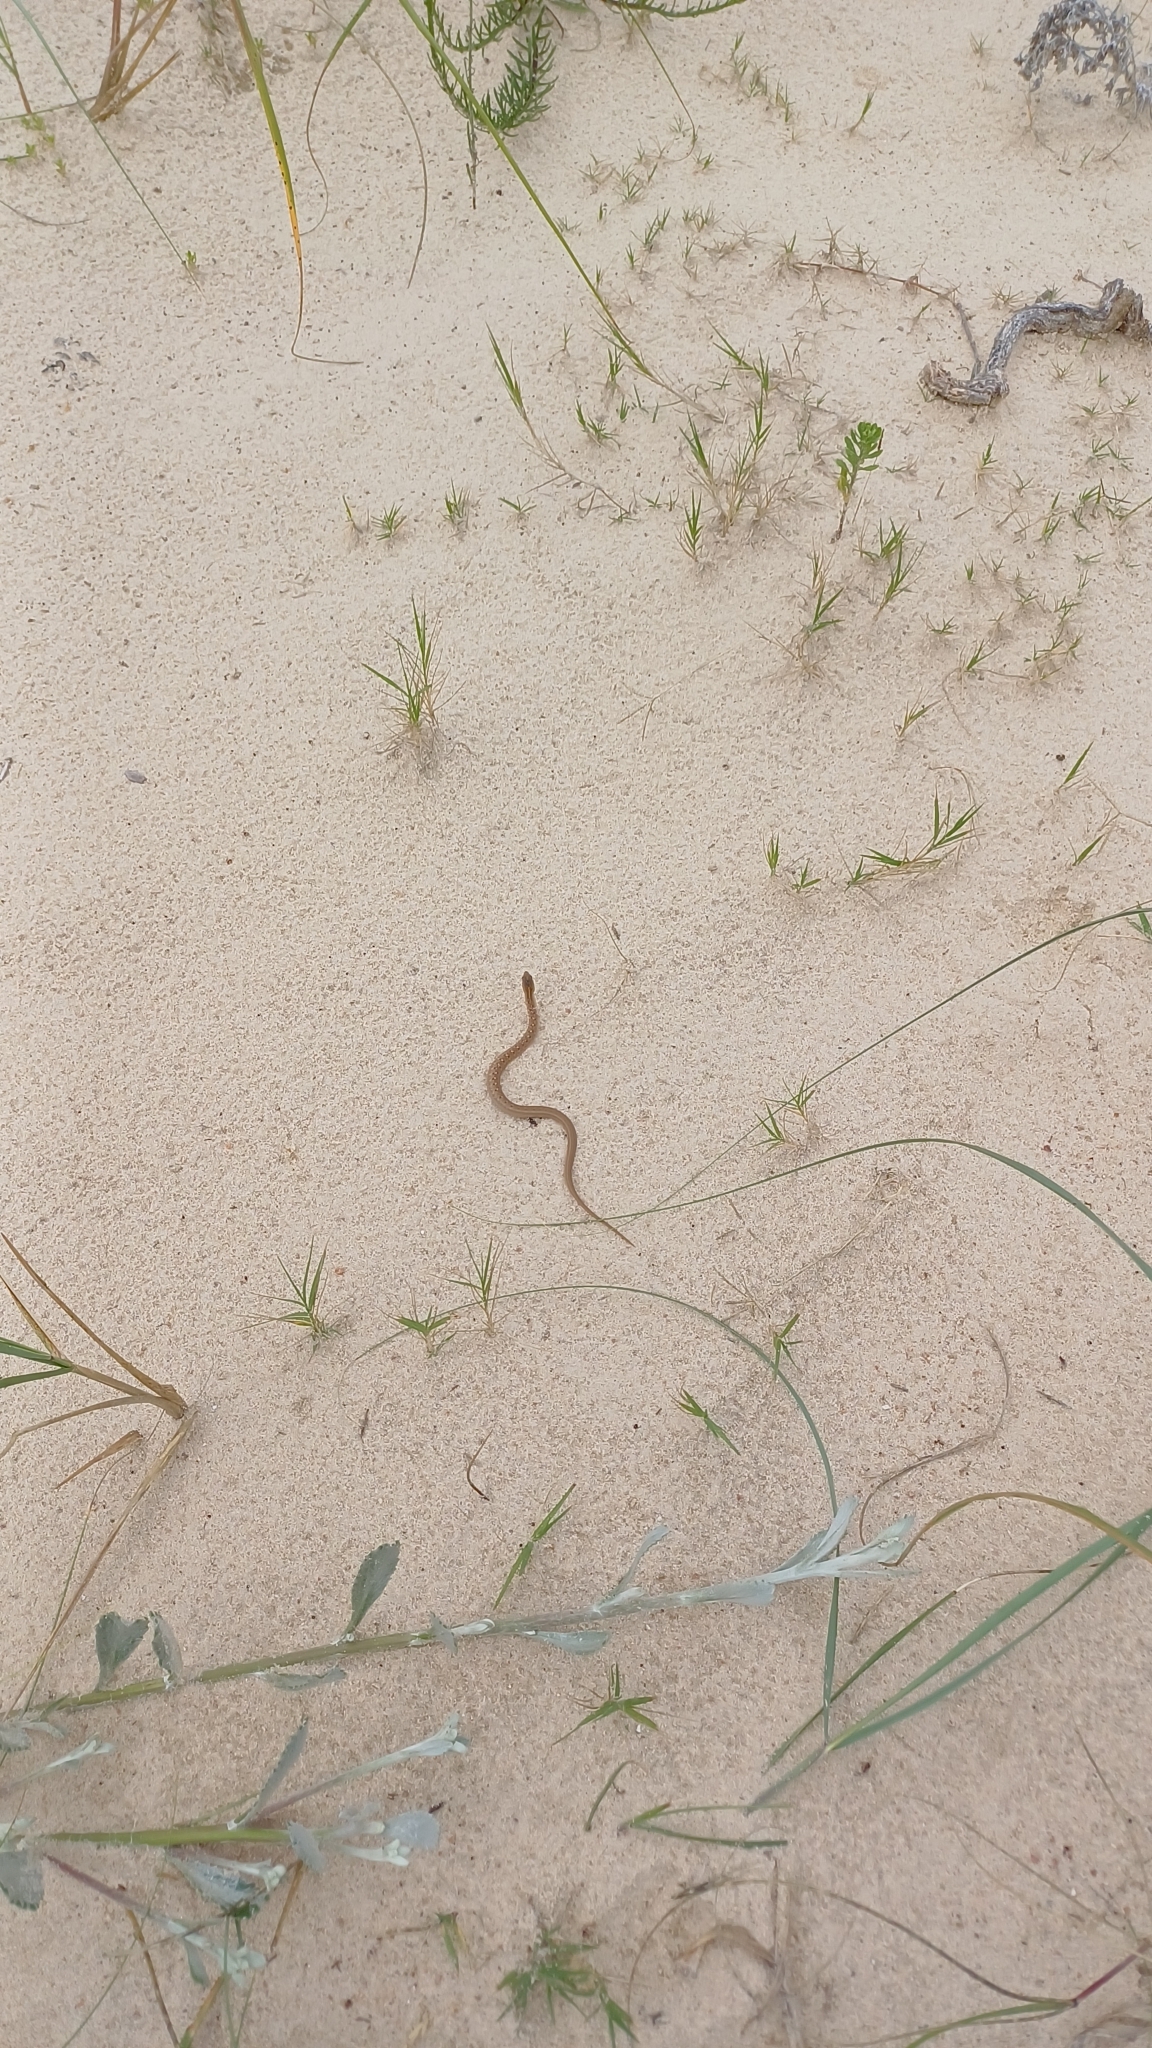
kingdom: Animalia
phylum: Chordata
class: Squamata
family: Colubridae
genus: Dryophylax
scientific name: Dryophylax
